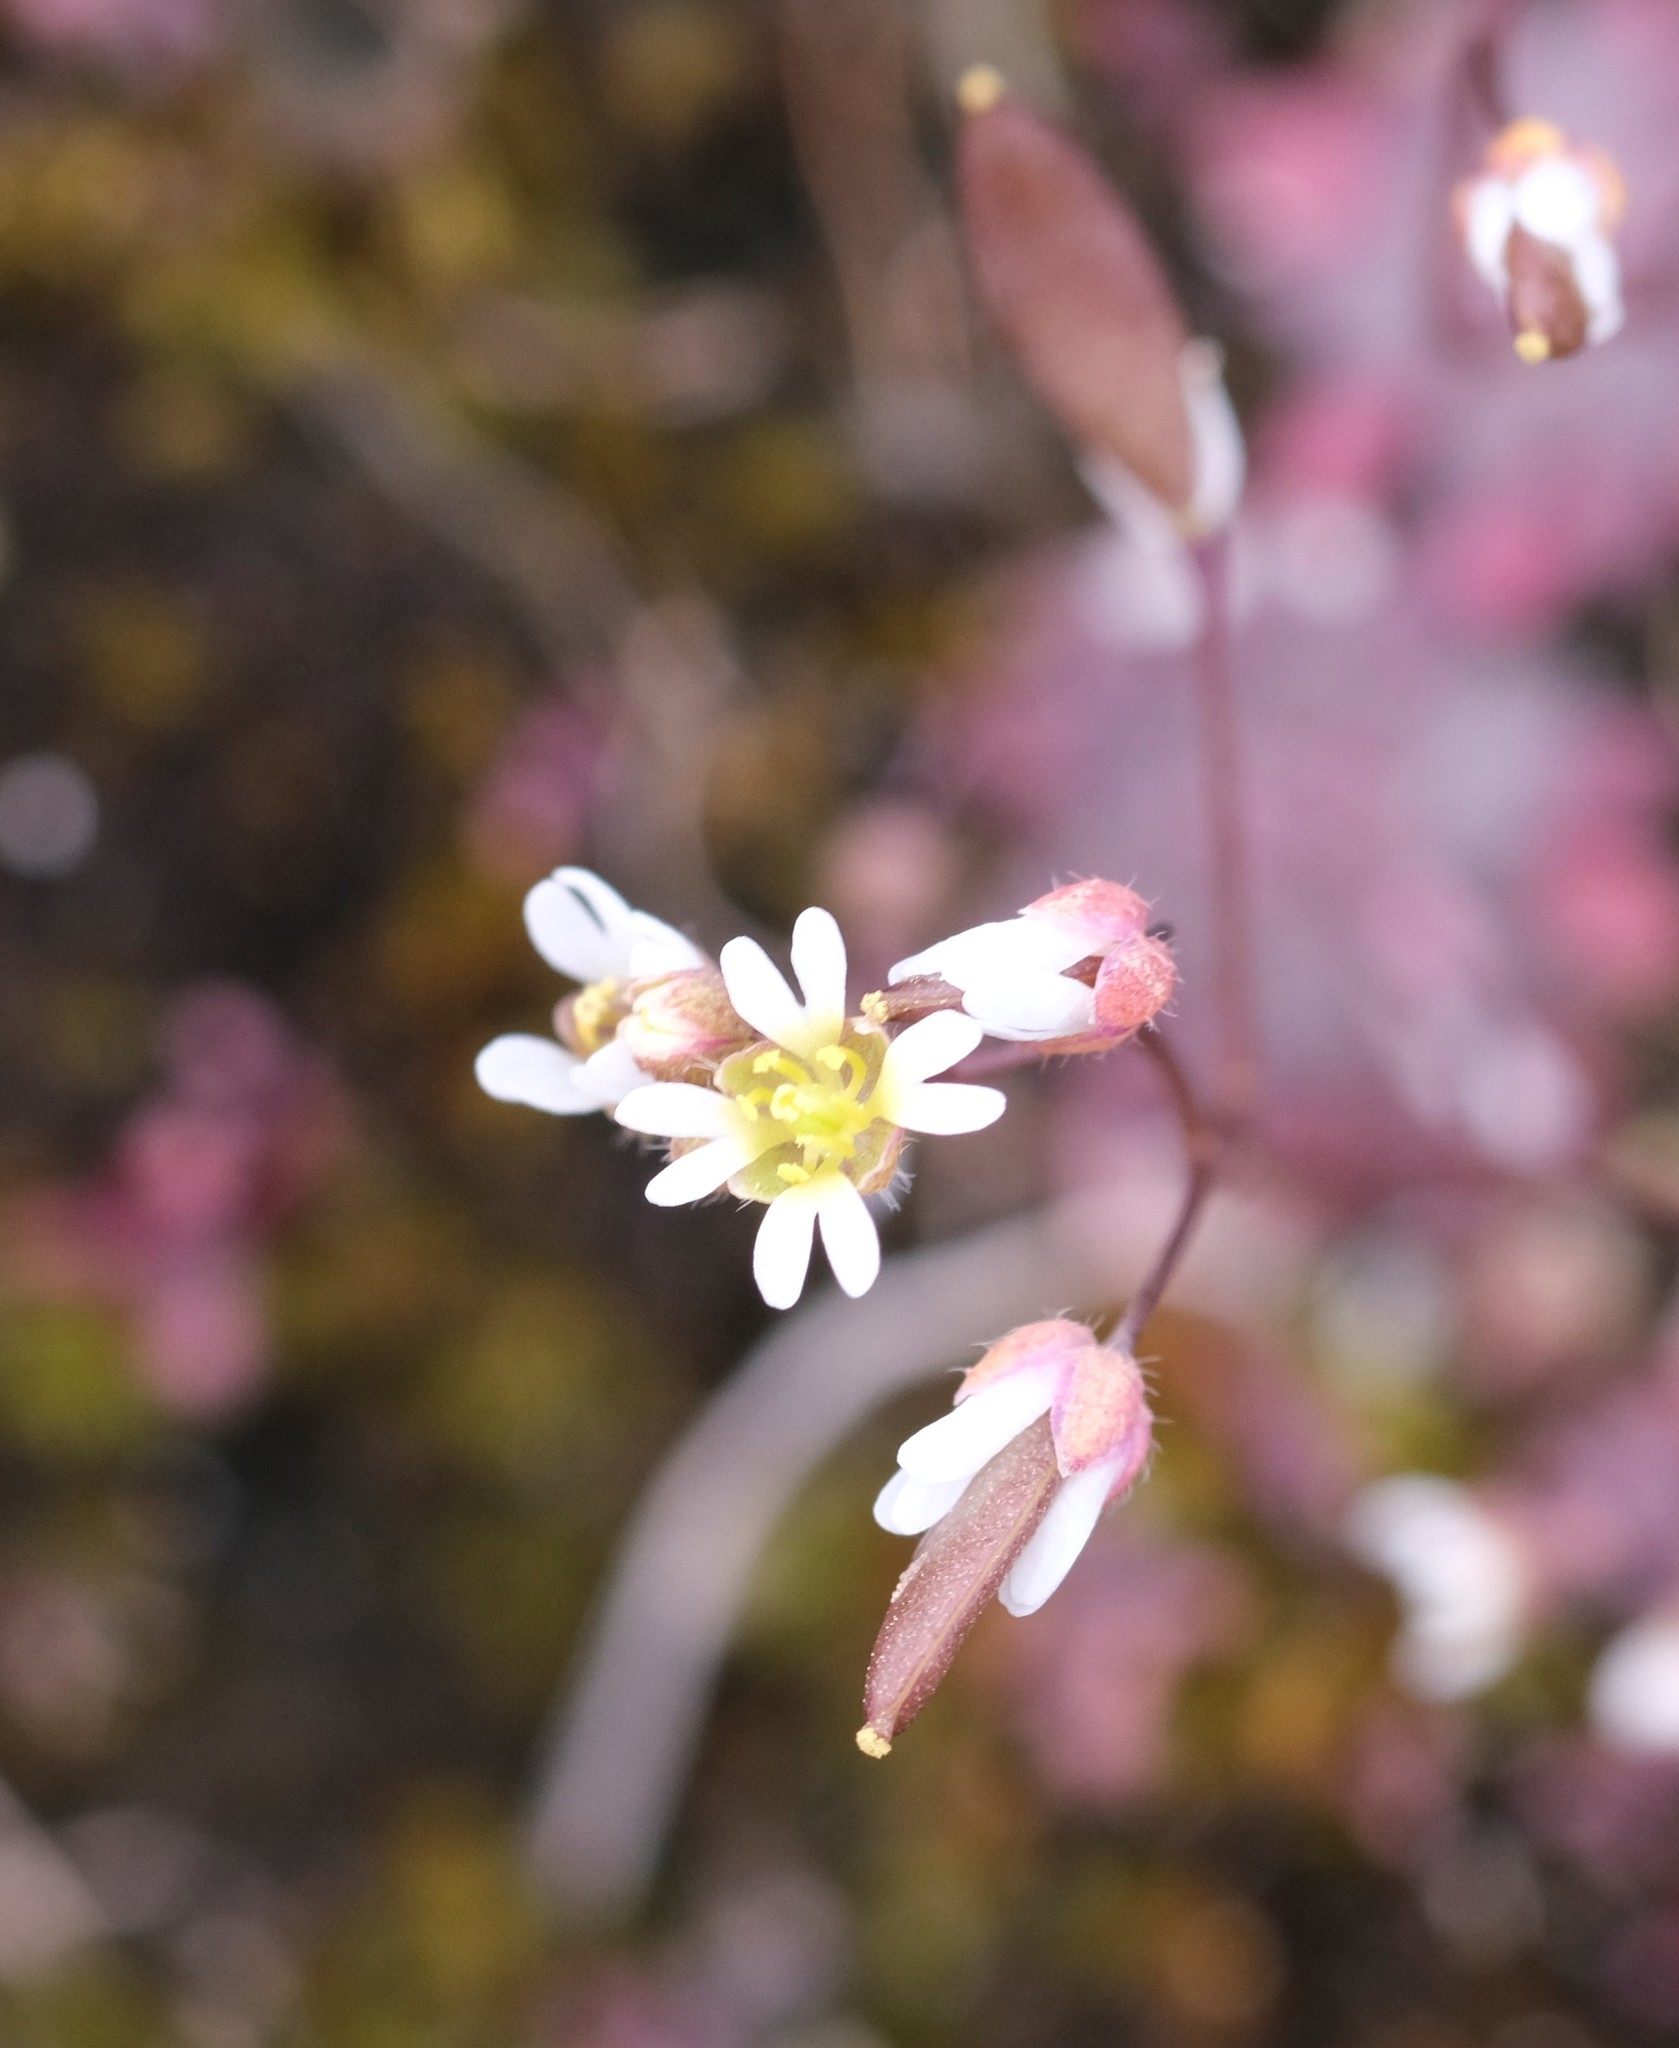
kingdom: Plantae
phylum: Tracheophyta
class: Magnoliopsida
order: Brassicales
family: Brassicaceae
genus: Draba
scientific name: Draba verna
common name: Spring draba
